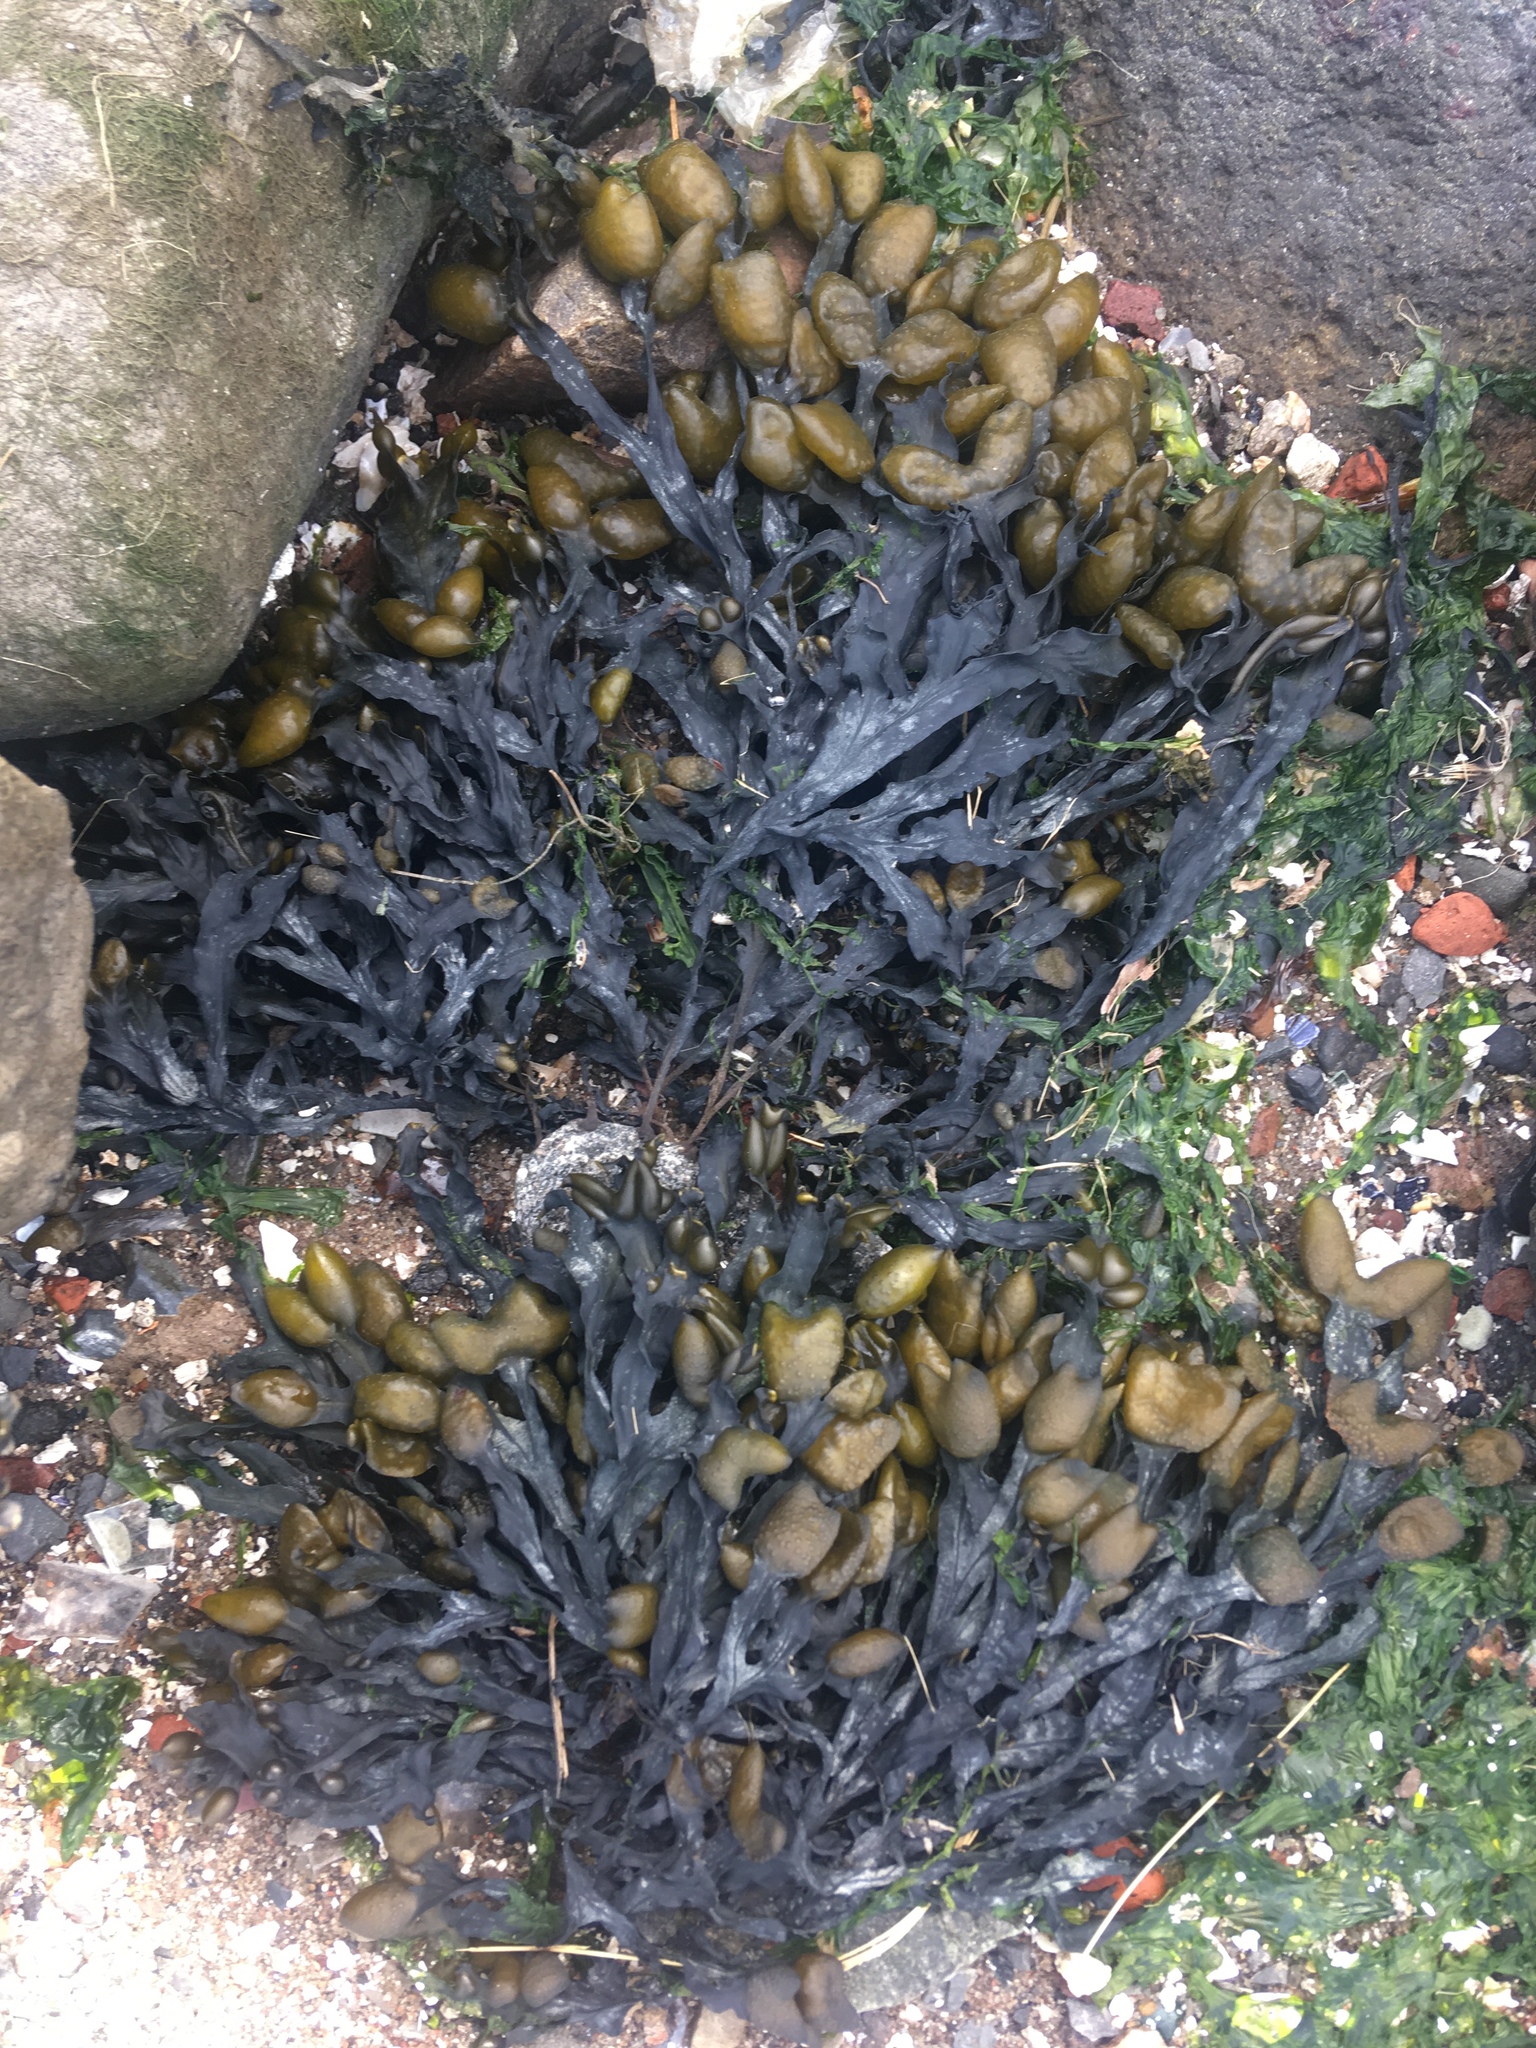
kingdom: Chromista
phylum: Ochrophyta
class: Phaeophyceae
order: Fucales
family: Fucaceae
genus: Fucus
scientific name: Fucus distichus
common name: Rockweed
